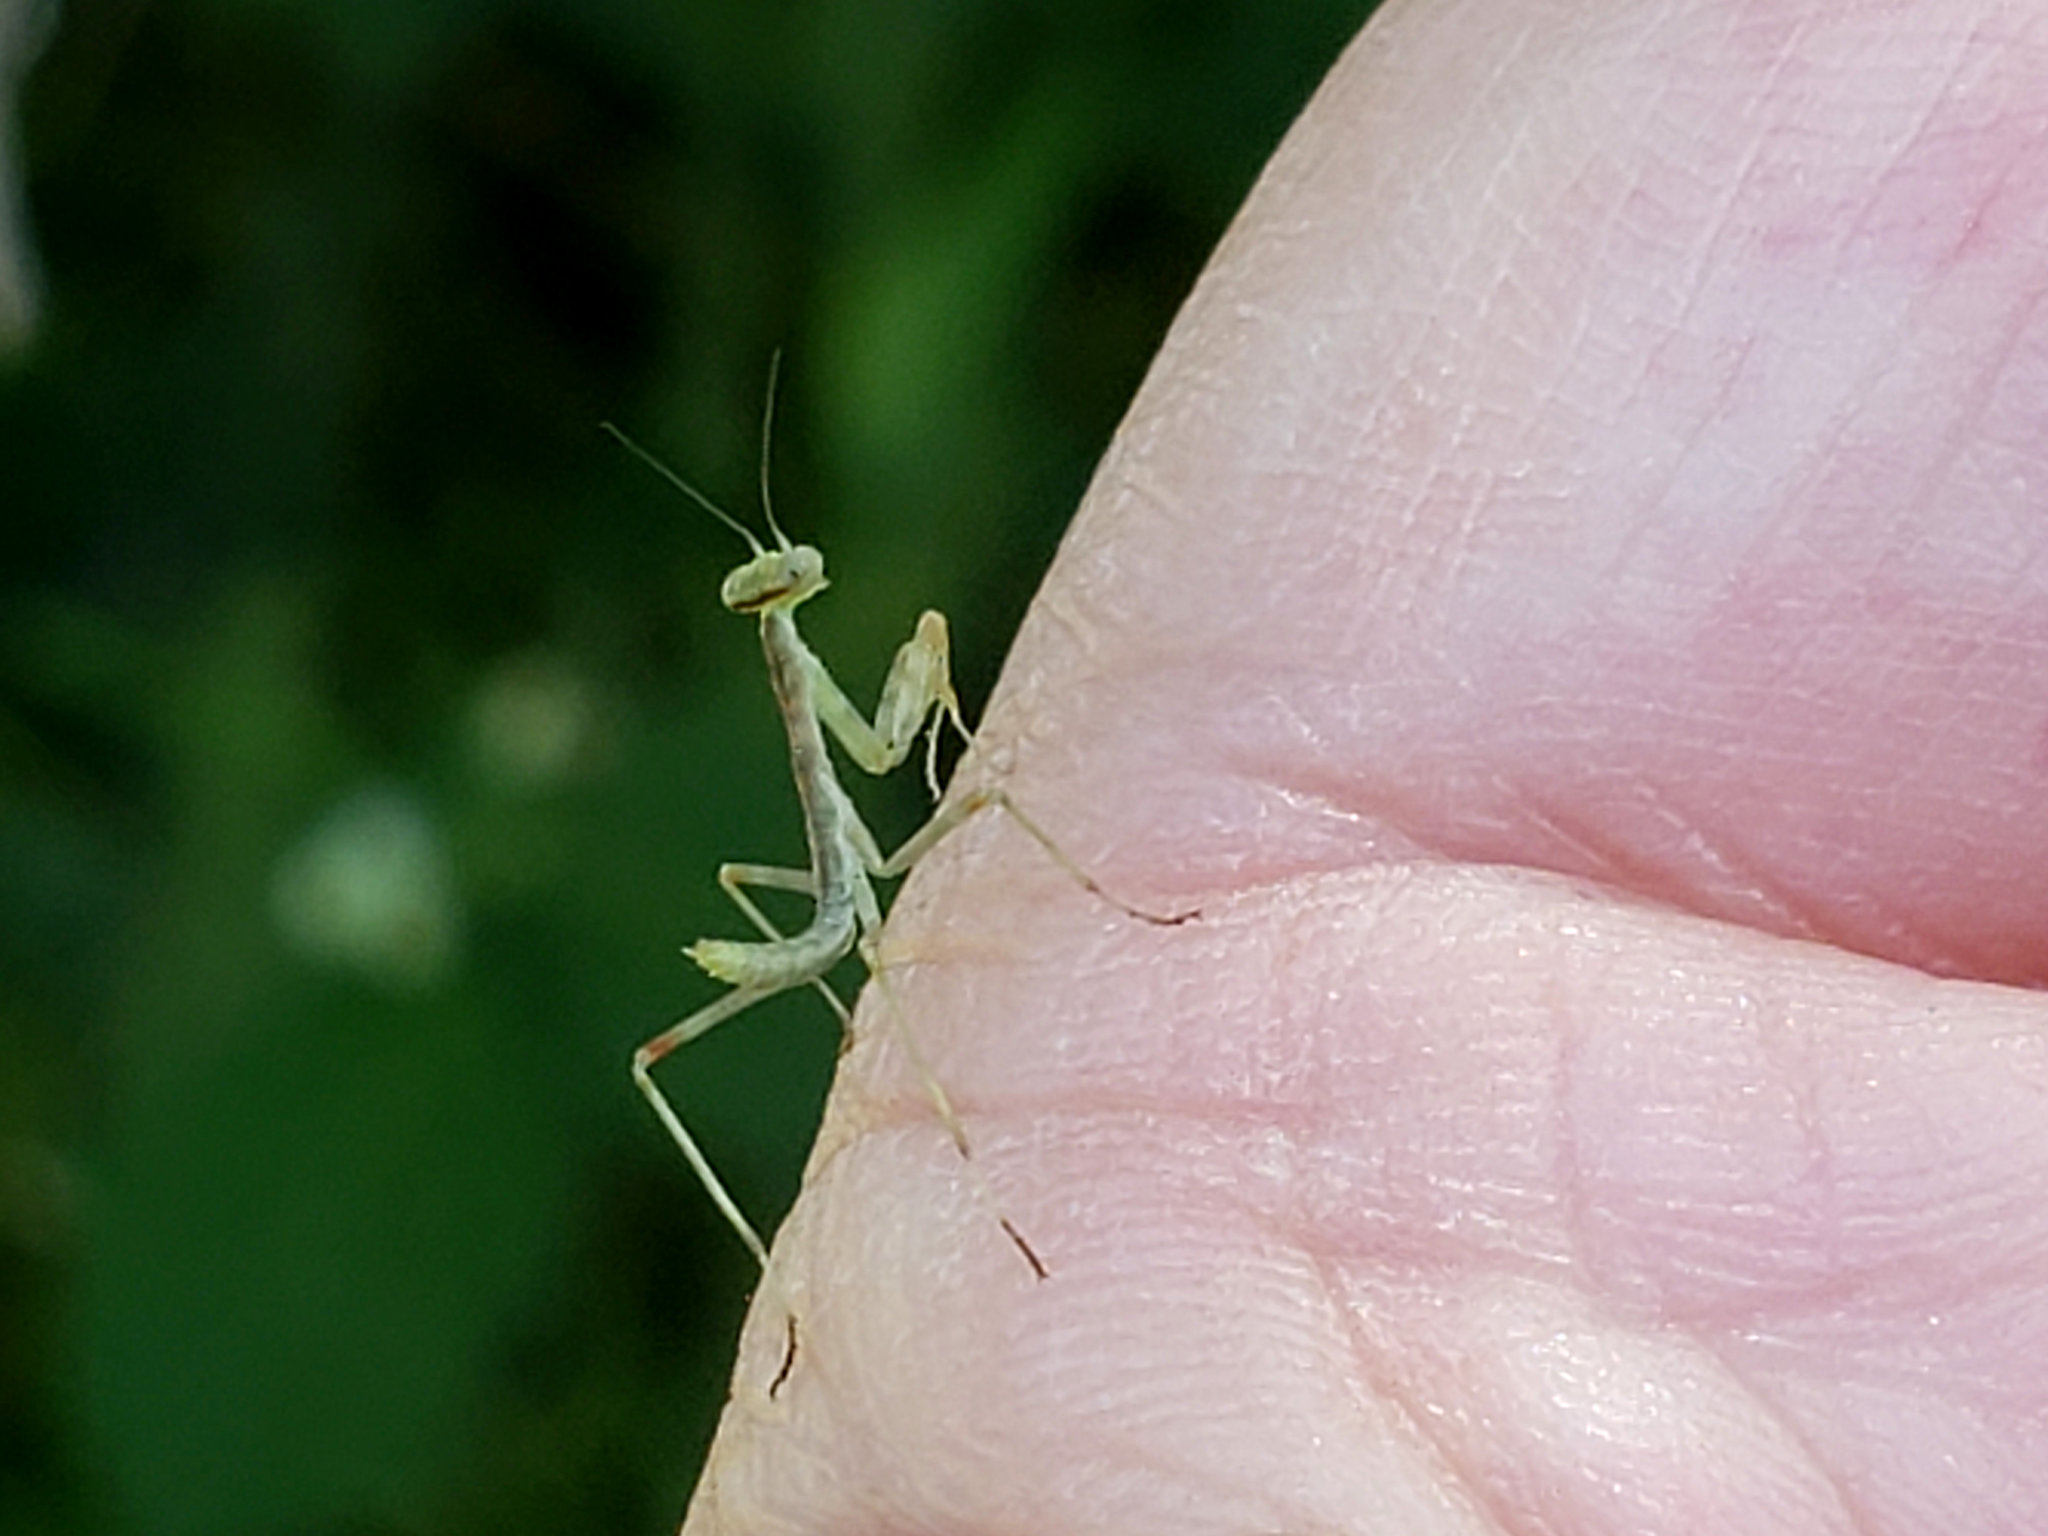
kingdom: Animalia
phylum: Arthropoda
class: Insecta
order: Mantodea
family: Mantidae
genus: Stagmomantis
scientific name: Stagmomantis limbata
